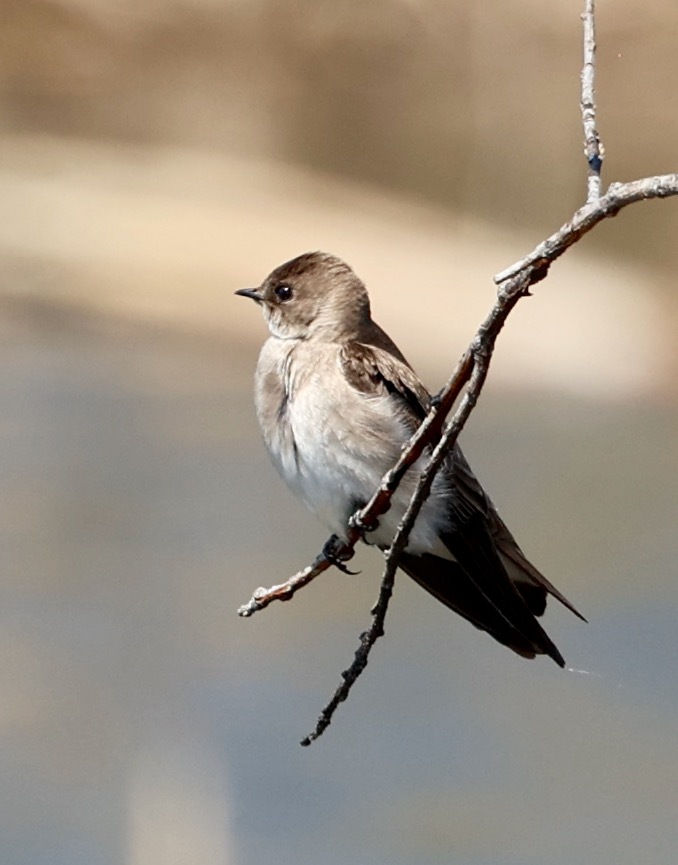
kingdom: Animalia
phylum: Chordata
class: Aves
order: Passeriformes
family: Hirundinidae
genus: Stelgidopteryx
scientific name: Stelgidopteryx serripennis
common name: Northern rough-winged swallow
